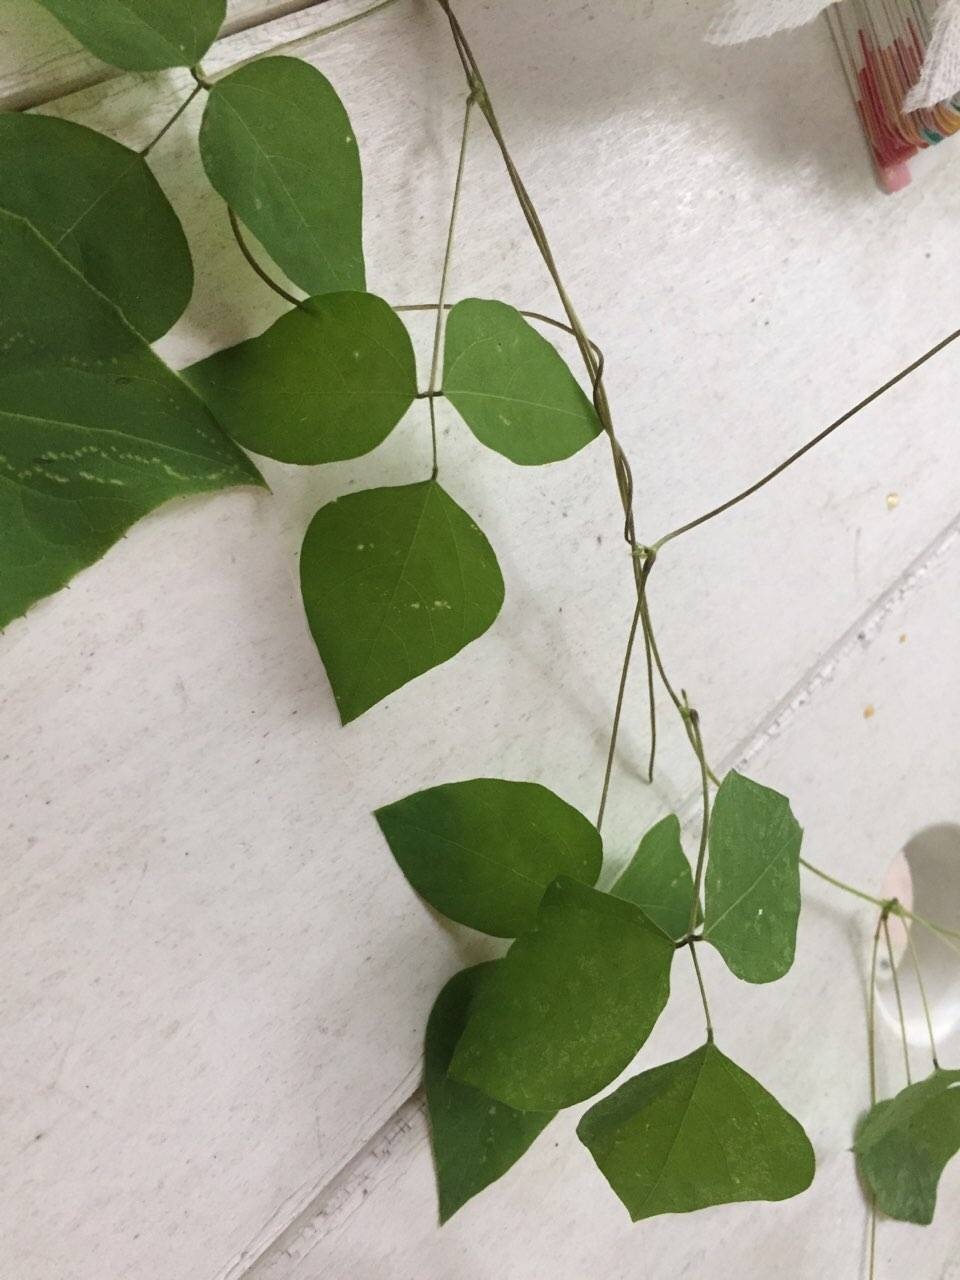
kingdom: Plantae
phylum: Tracheophyta
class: Magnoliopsida
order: Fabales
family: Fabaceae
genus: Amphicarpaea
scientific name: Amphicarpaea bracteata
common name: American hog peanut
